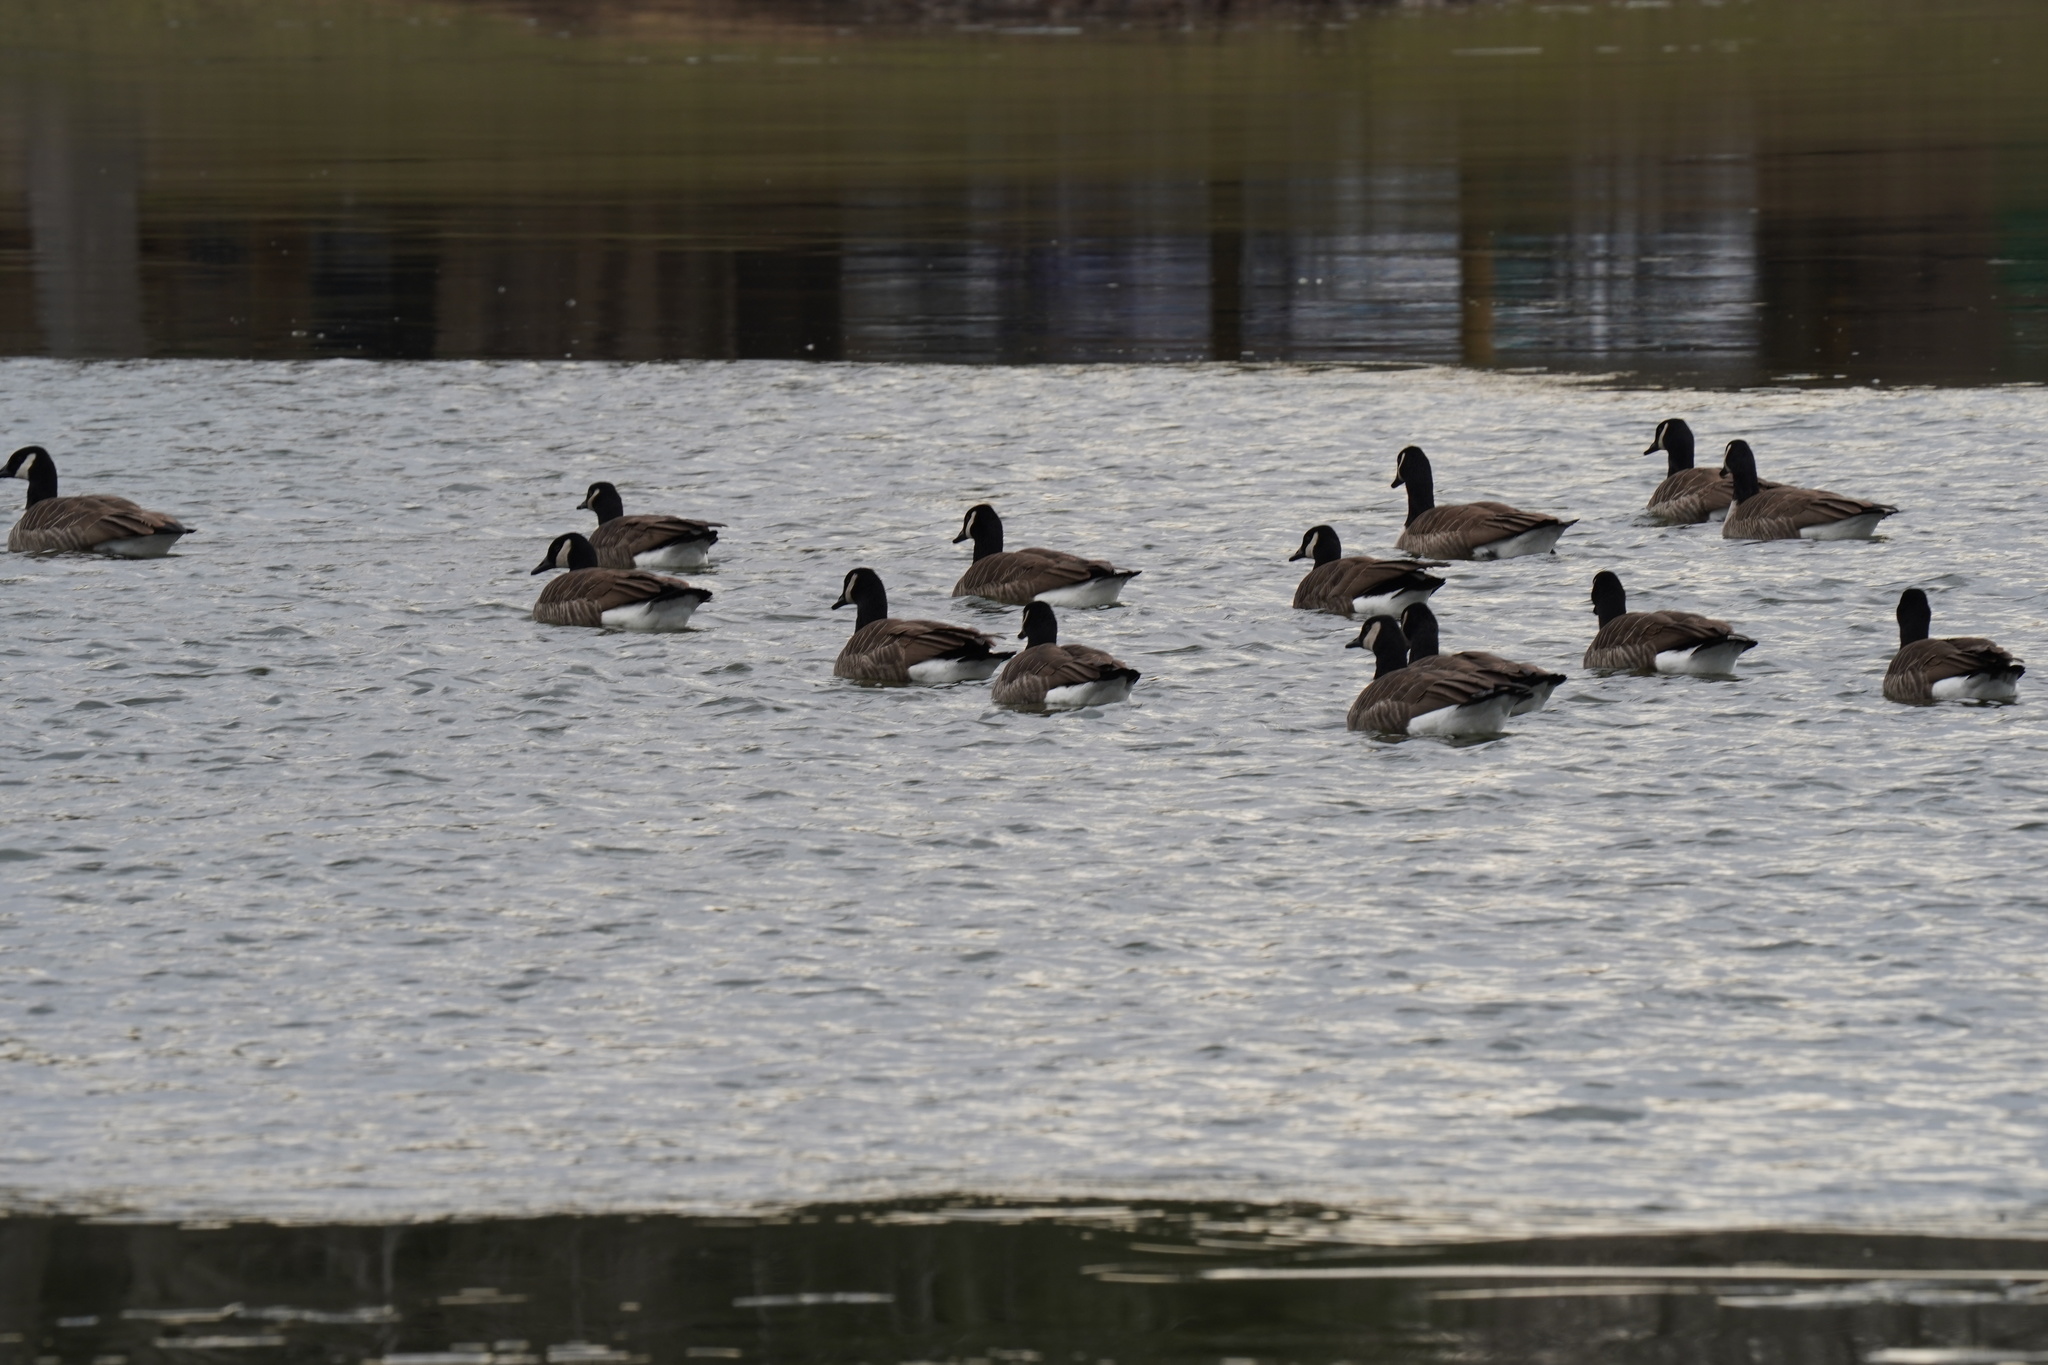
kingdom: Animalia
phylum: Chordata
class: Aves
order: Anseriformes
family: Anatidae
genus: Branta
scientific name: Branta canadensis
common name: Canada goose
